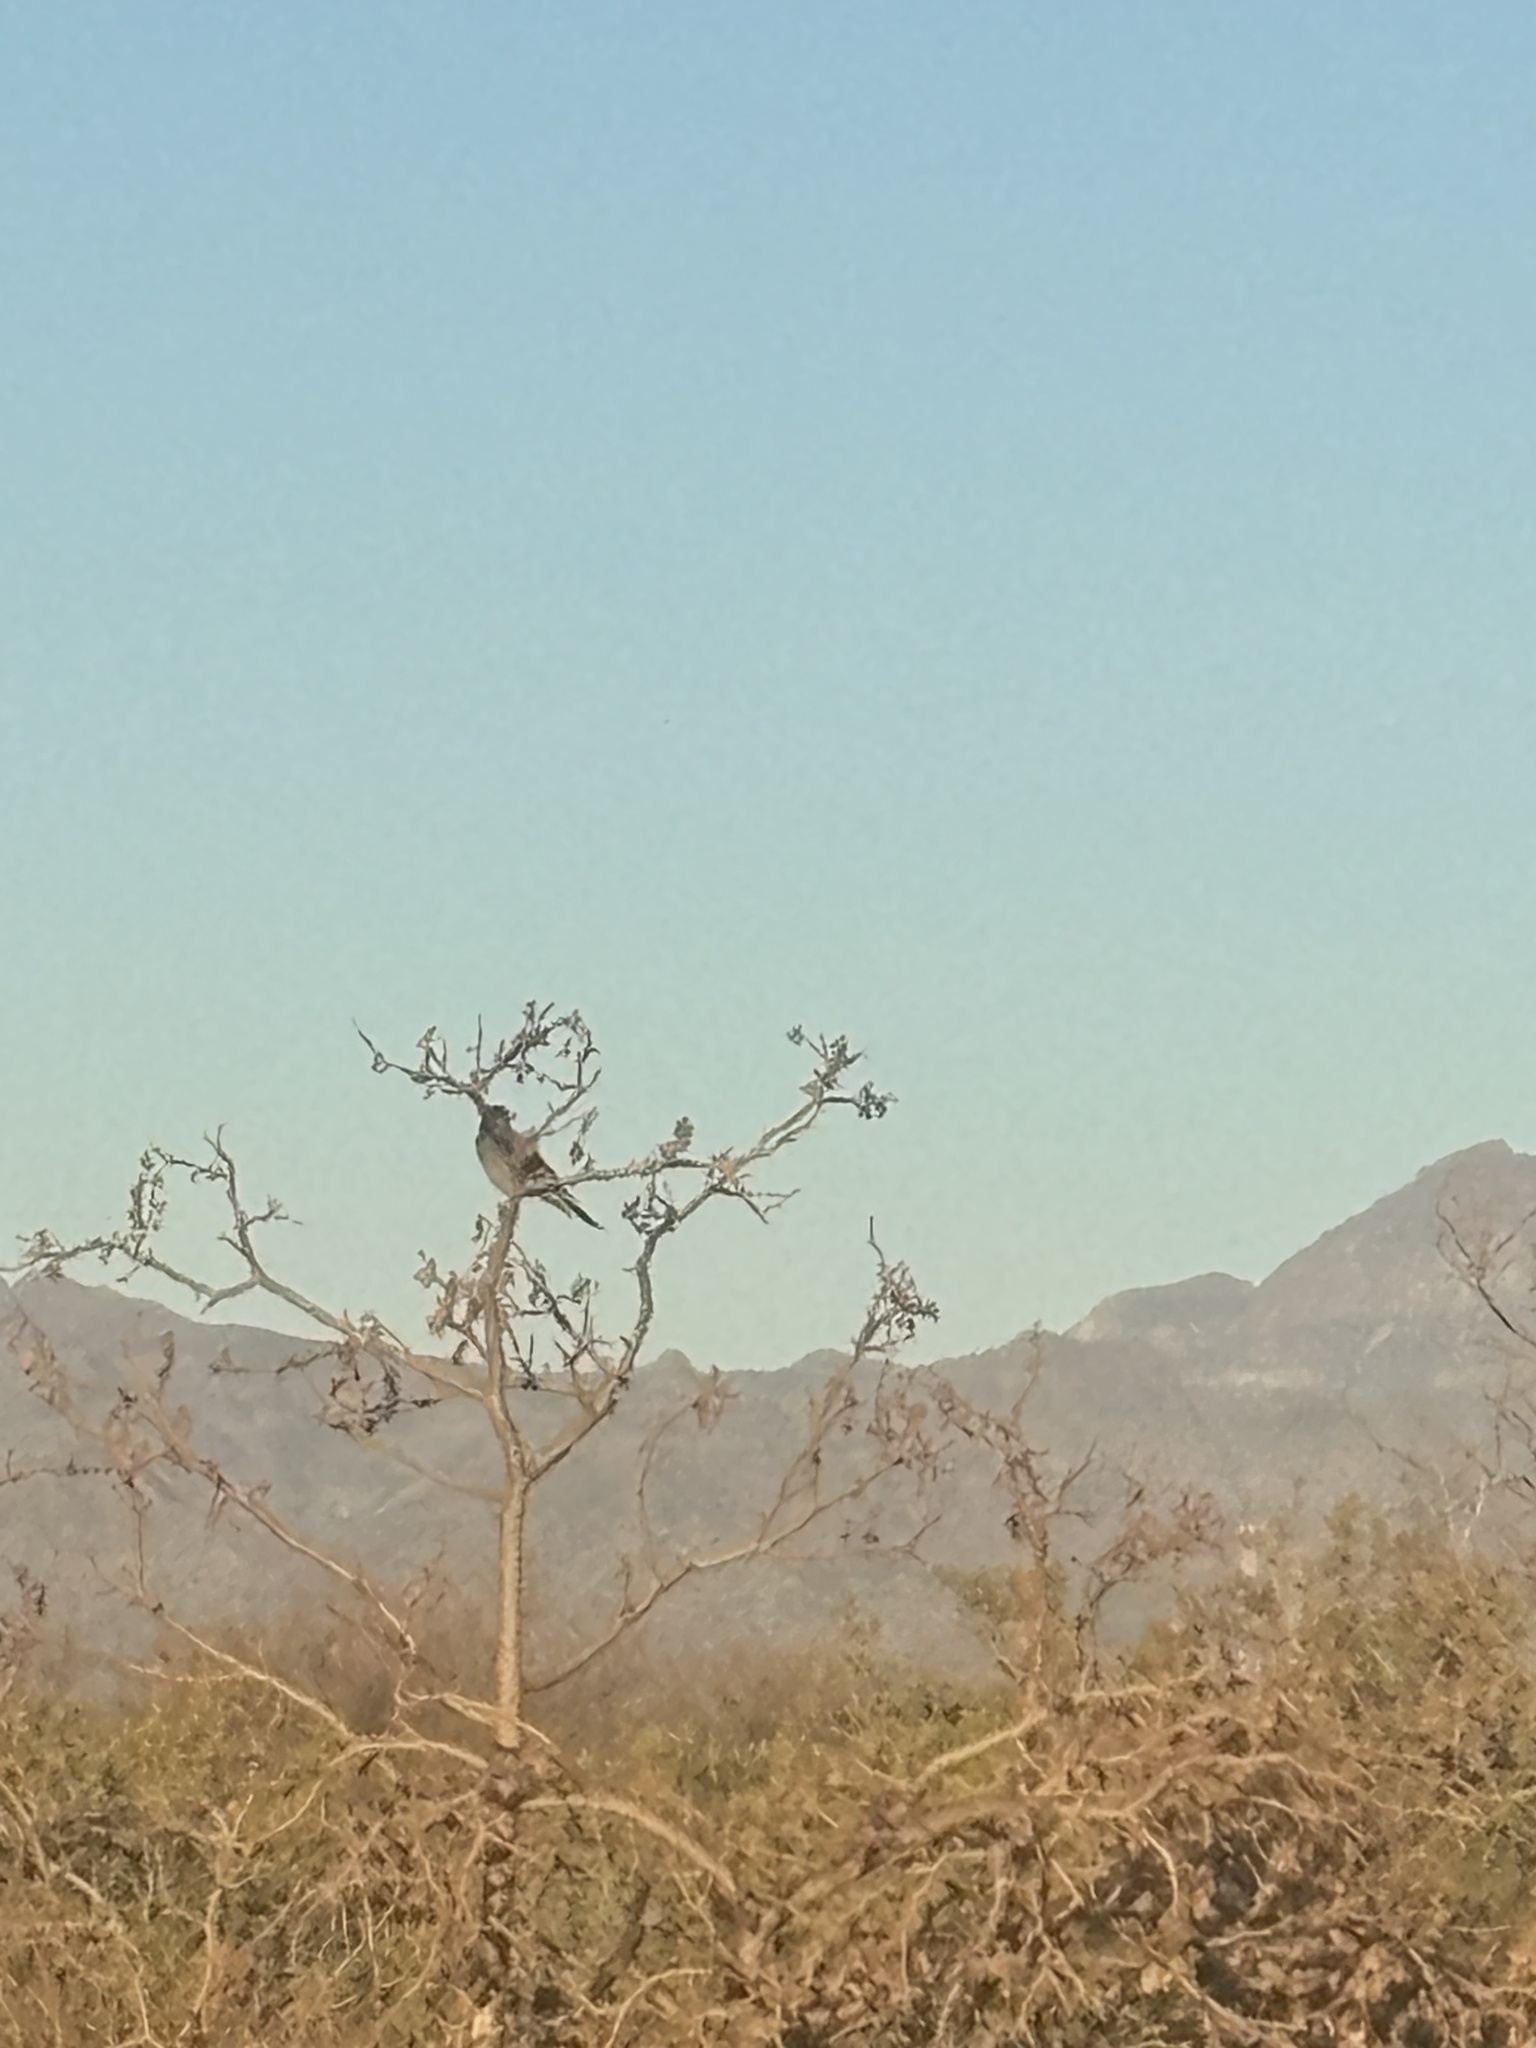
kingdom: Animalia
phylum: Chordata
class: Aves
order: Passeriformes
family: Troglodytidae
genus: Campylorhynchus
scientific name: Campylorhynchus brunneicapillus
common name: Cactus wren
